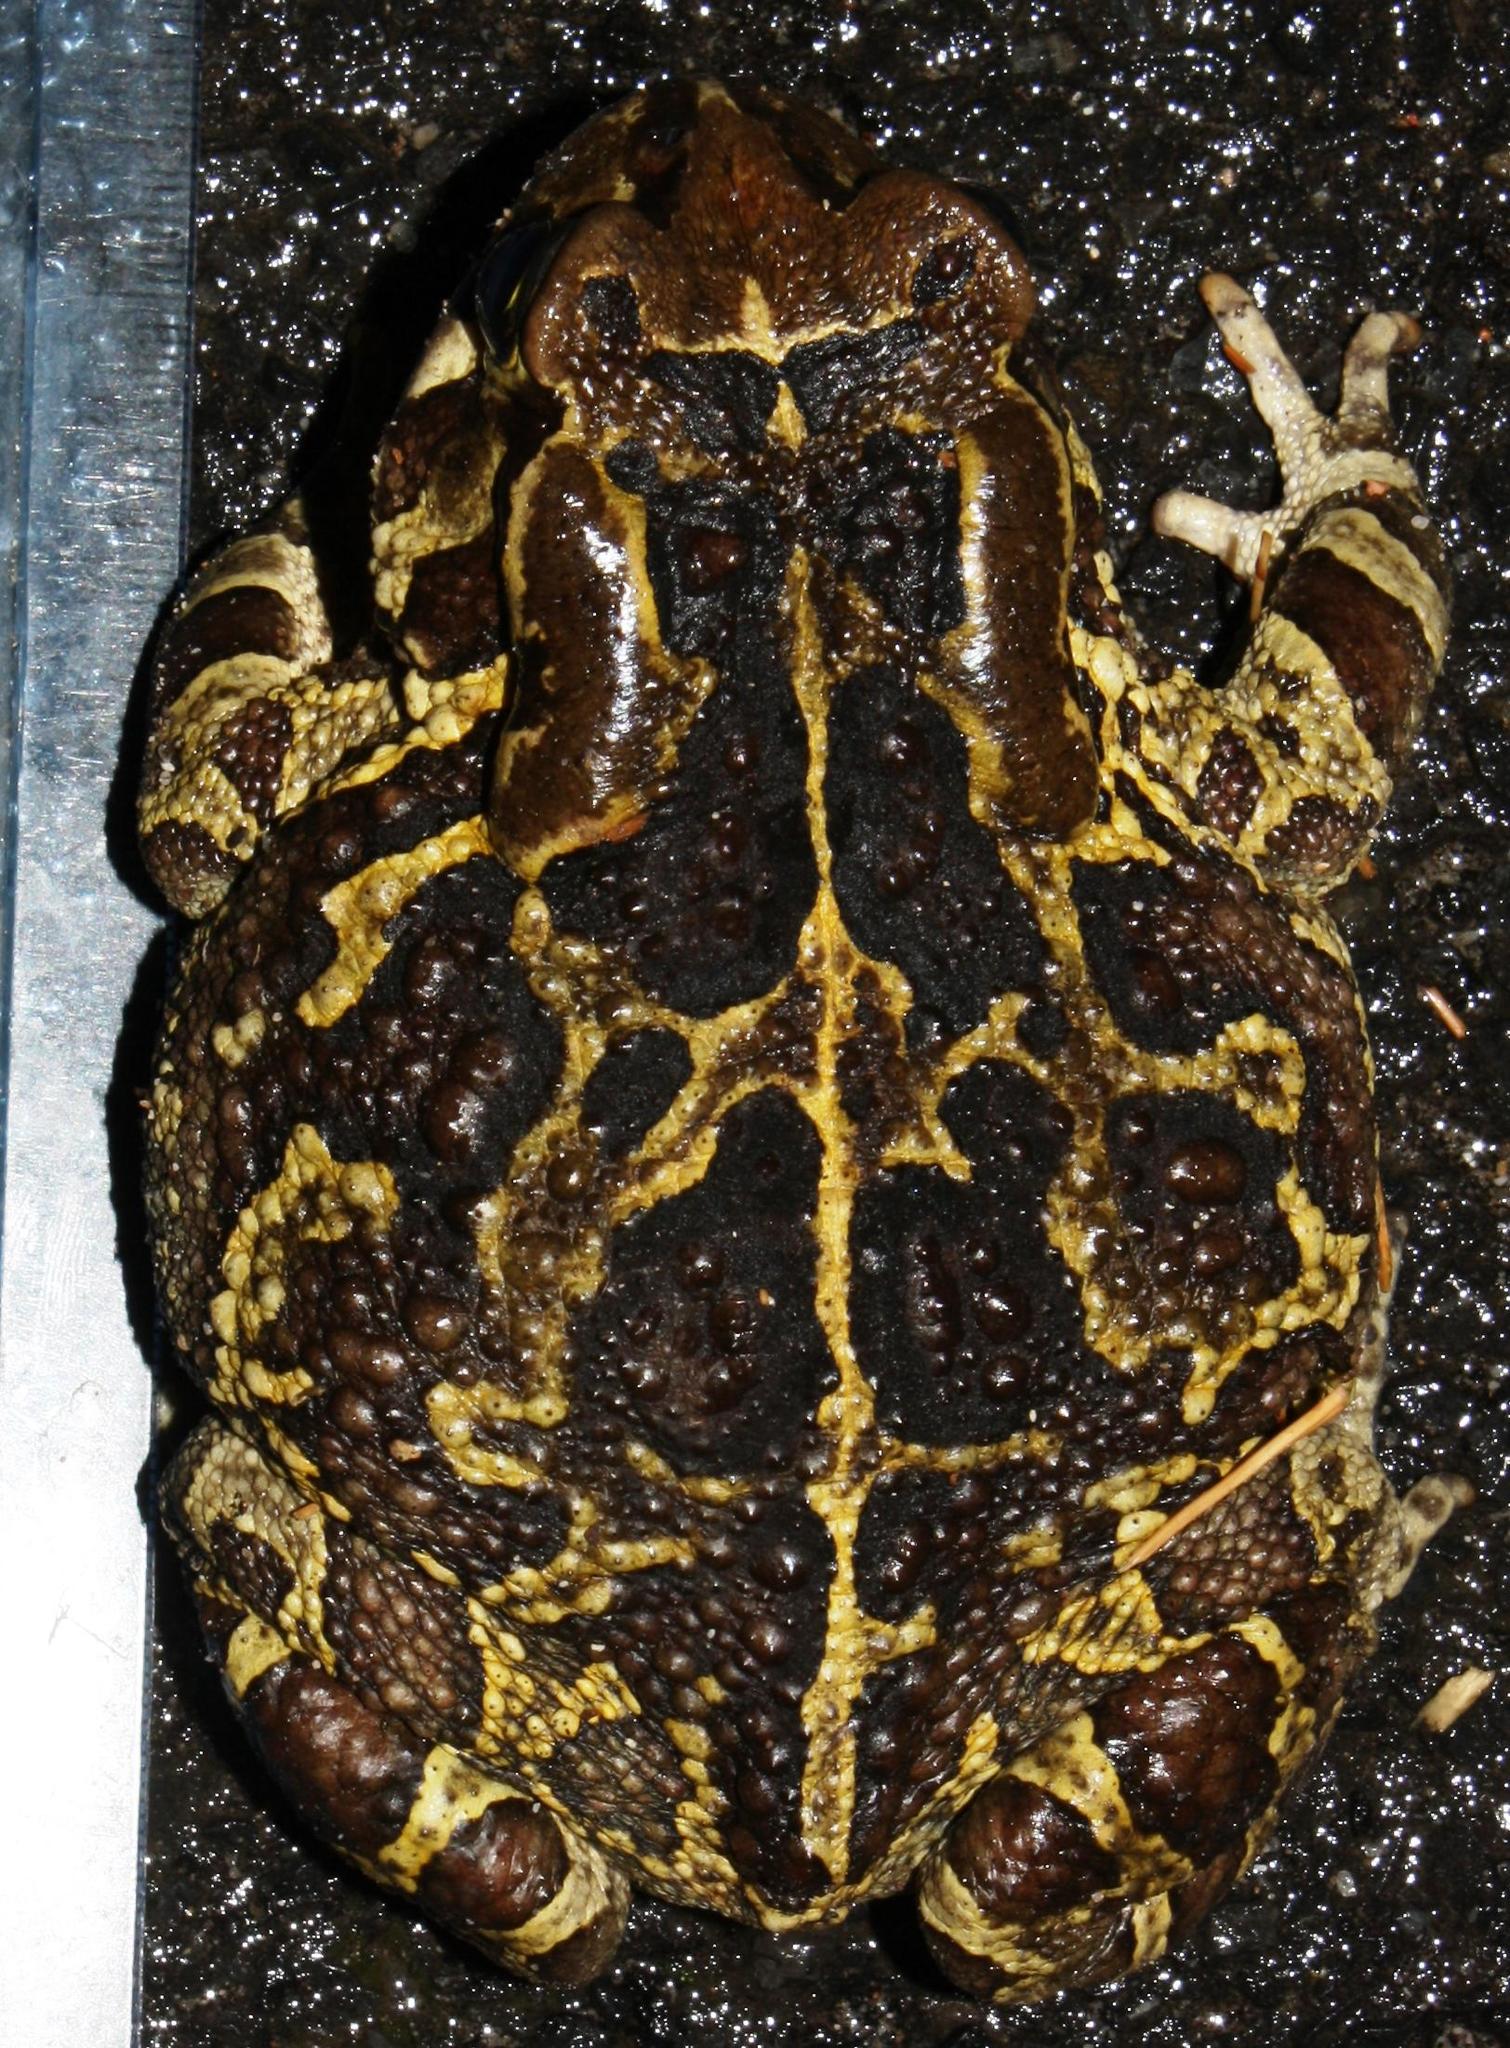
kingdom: Animalia
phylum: Chordata
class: Amphibia
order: Anura
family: Bufonidae
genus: Sclerophrys
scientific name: Sclerophrys pantherina
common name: Panther toad
